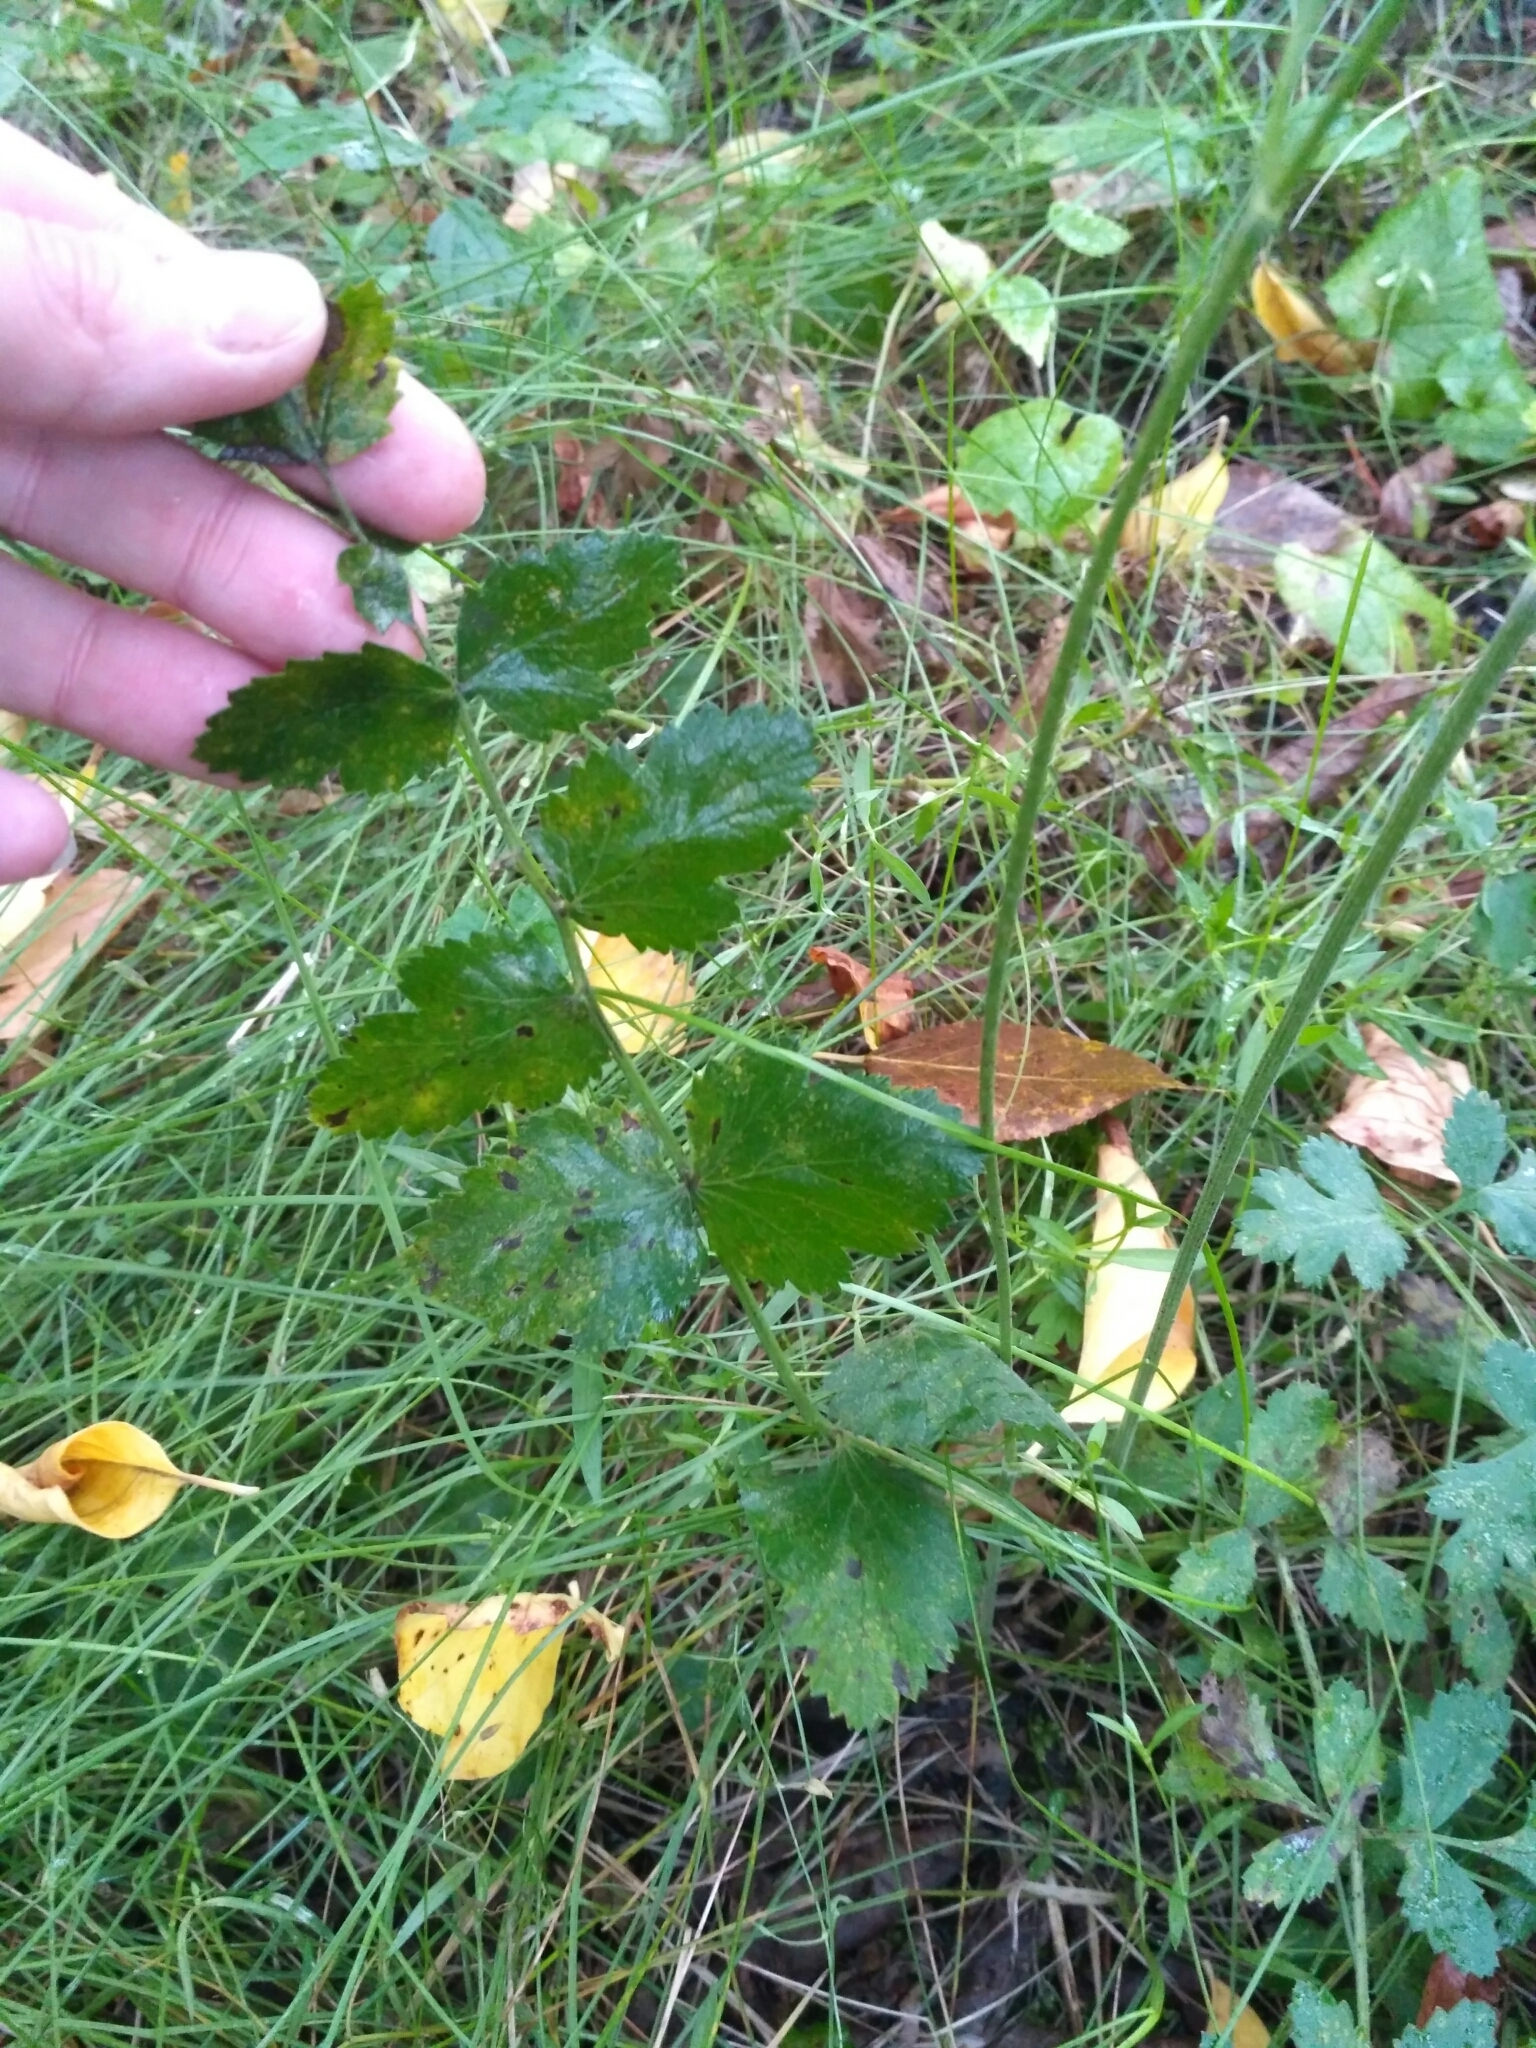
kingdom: Plantae
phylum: Tracheophyta
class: Magnoliopsida
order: Apiales
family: Apiaceae
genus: Pimpinella
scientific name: Pimpinella saxifraga
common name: Burnet-saxifrage
